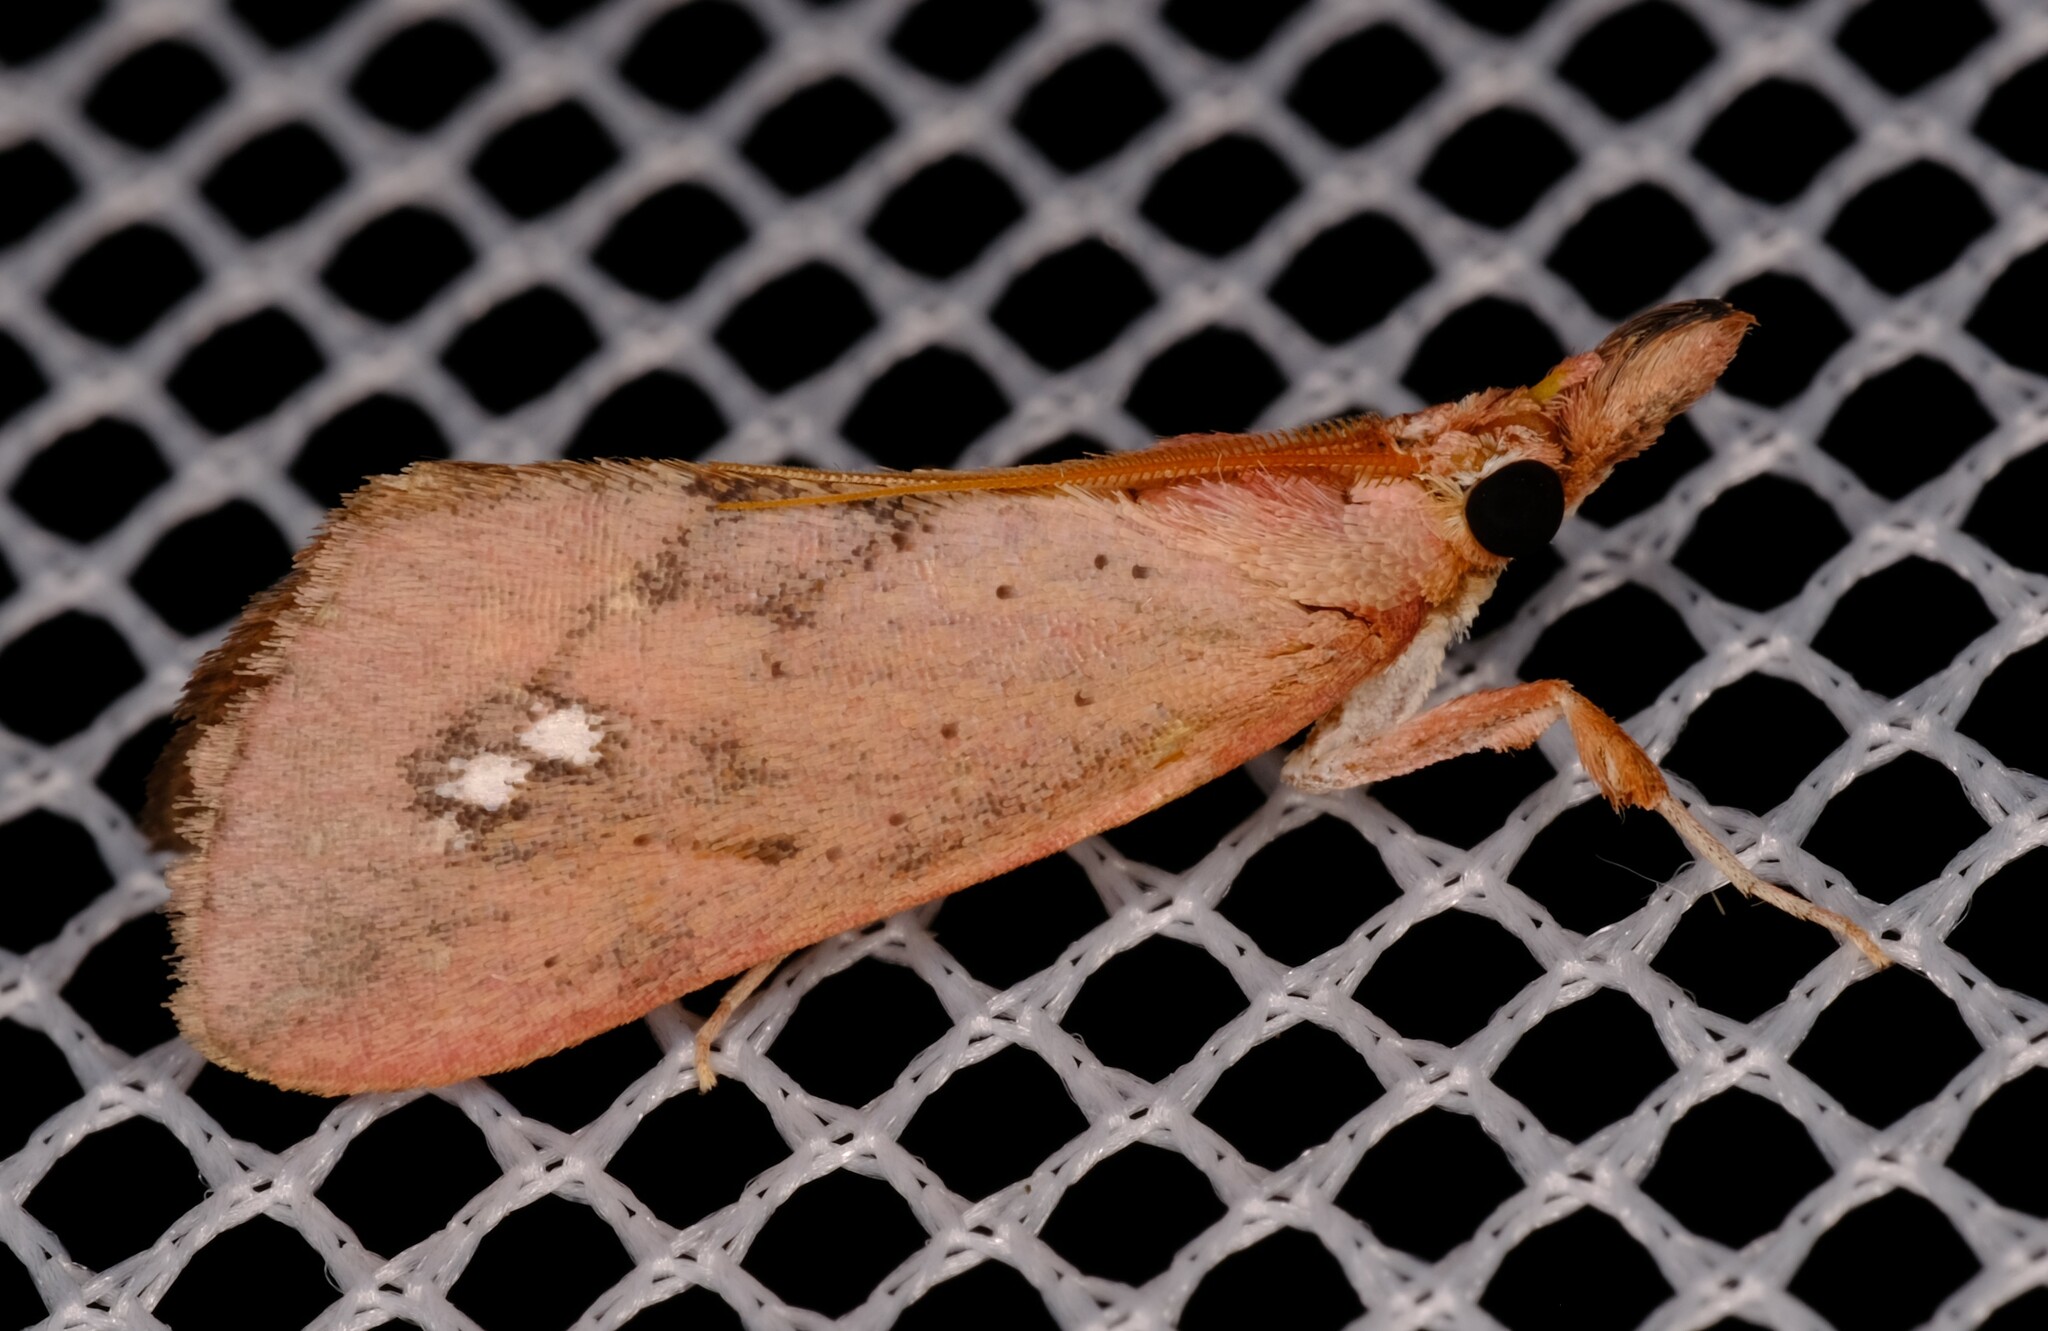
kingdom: Animalia
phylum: Arthropoda
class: Insecta
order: Lepidoptera
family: Pyralidae
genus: Anemosa
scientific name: Anemosa isadasalis
